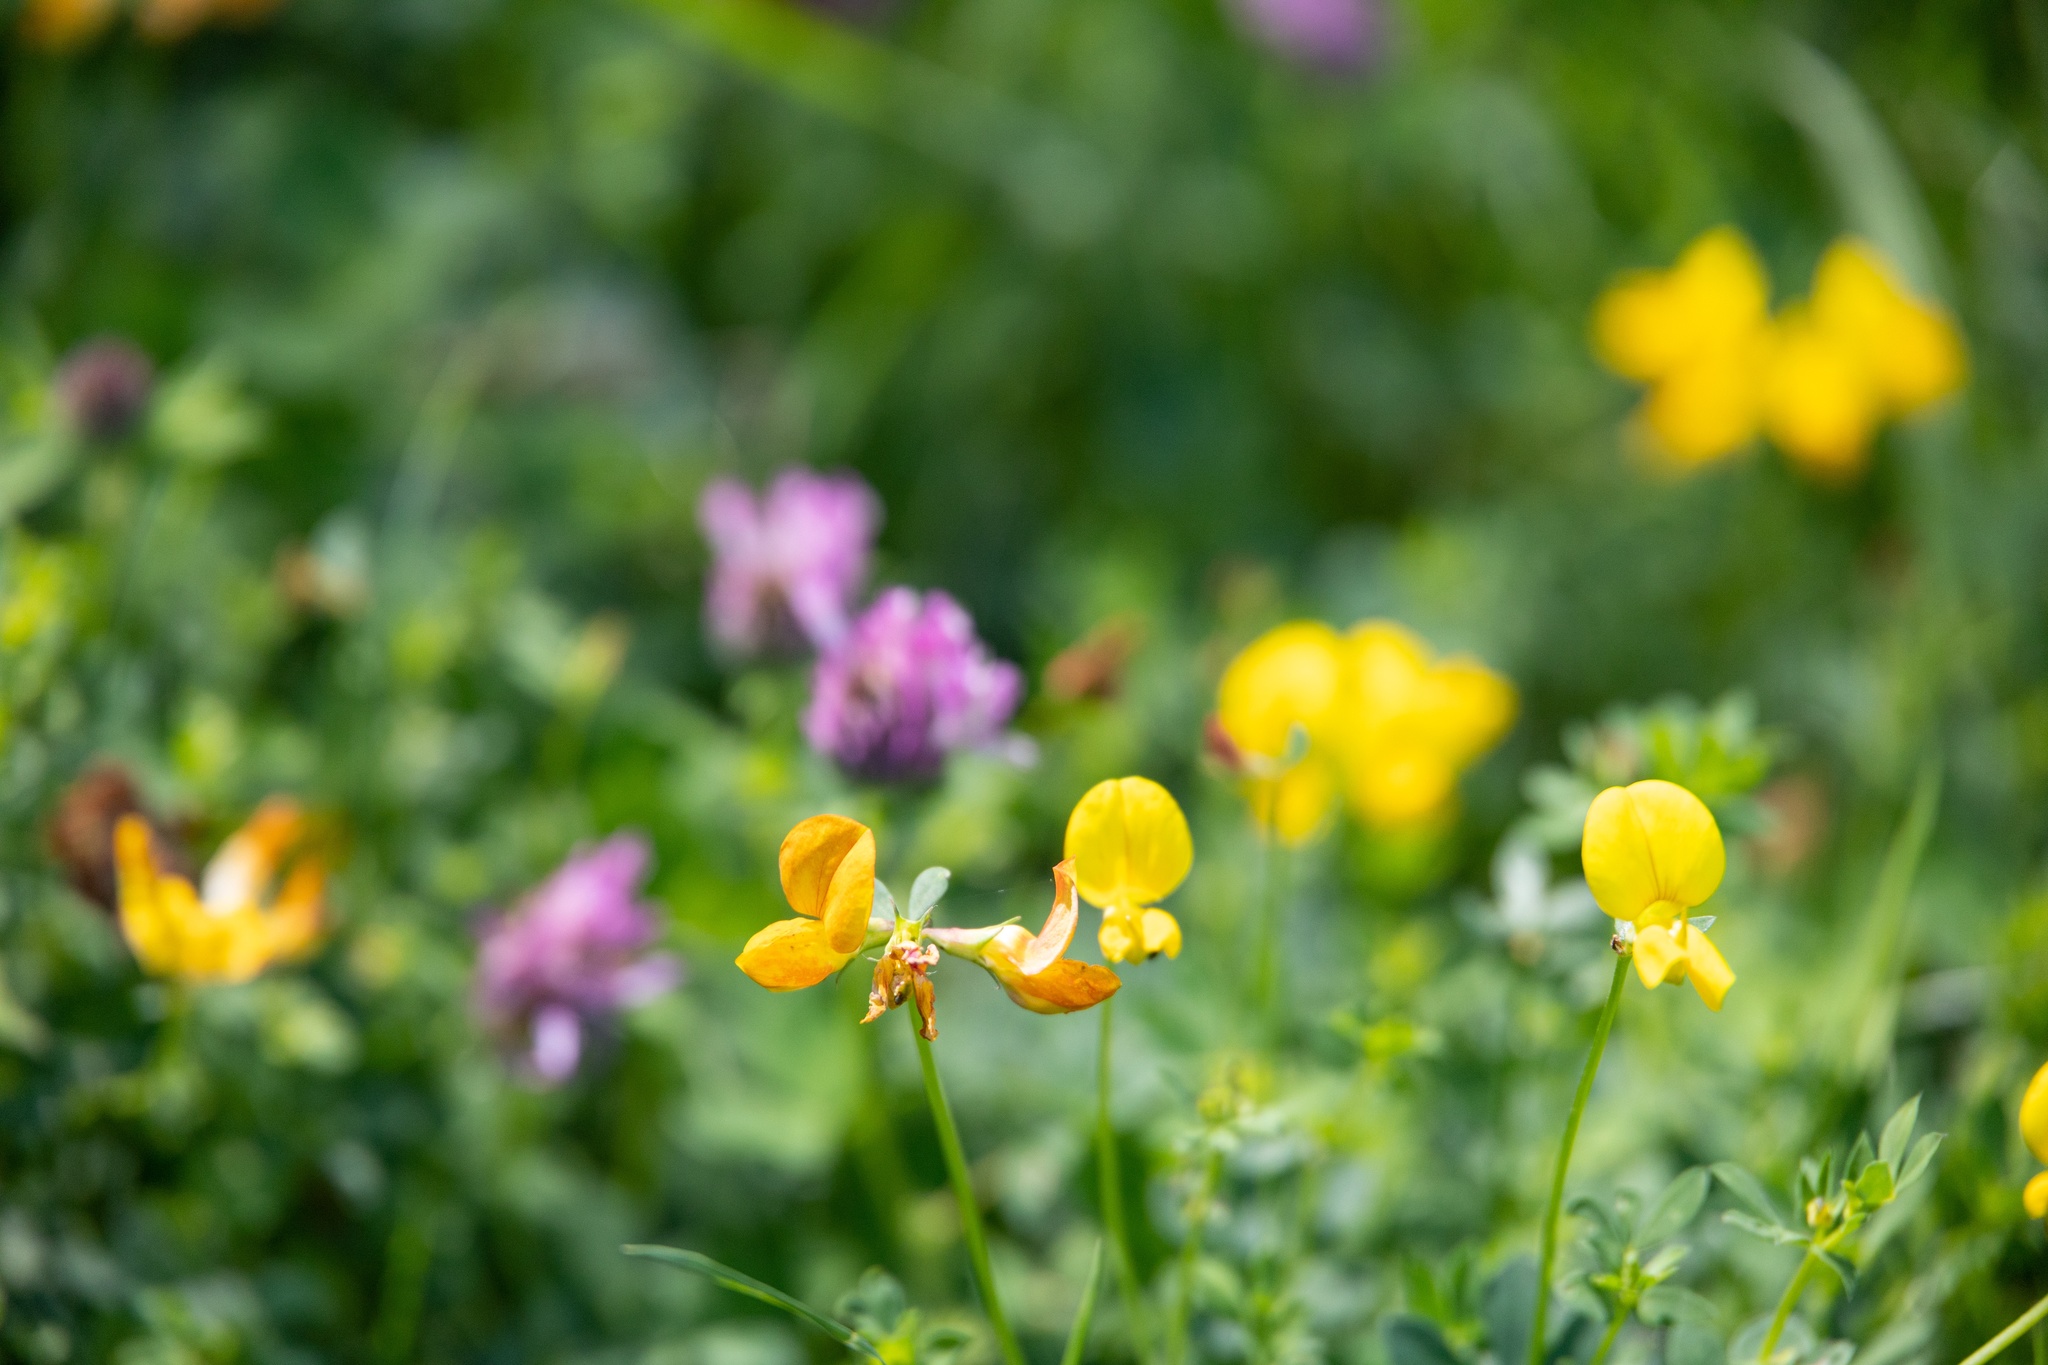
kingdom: Plantae
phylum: Tracheophyta
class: Magnoliopsida
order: Fabales
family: Fabaceae
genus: Lotus
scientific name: Lotus corniculatus
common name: Common bird's-foot-trefoil
